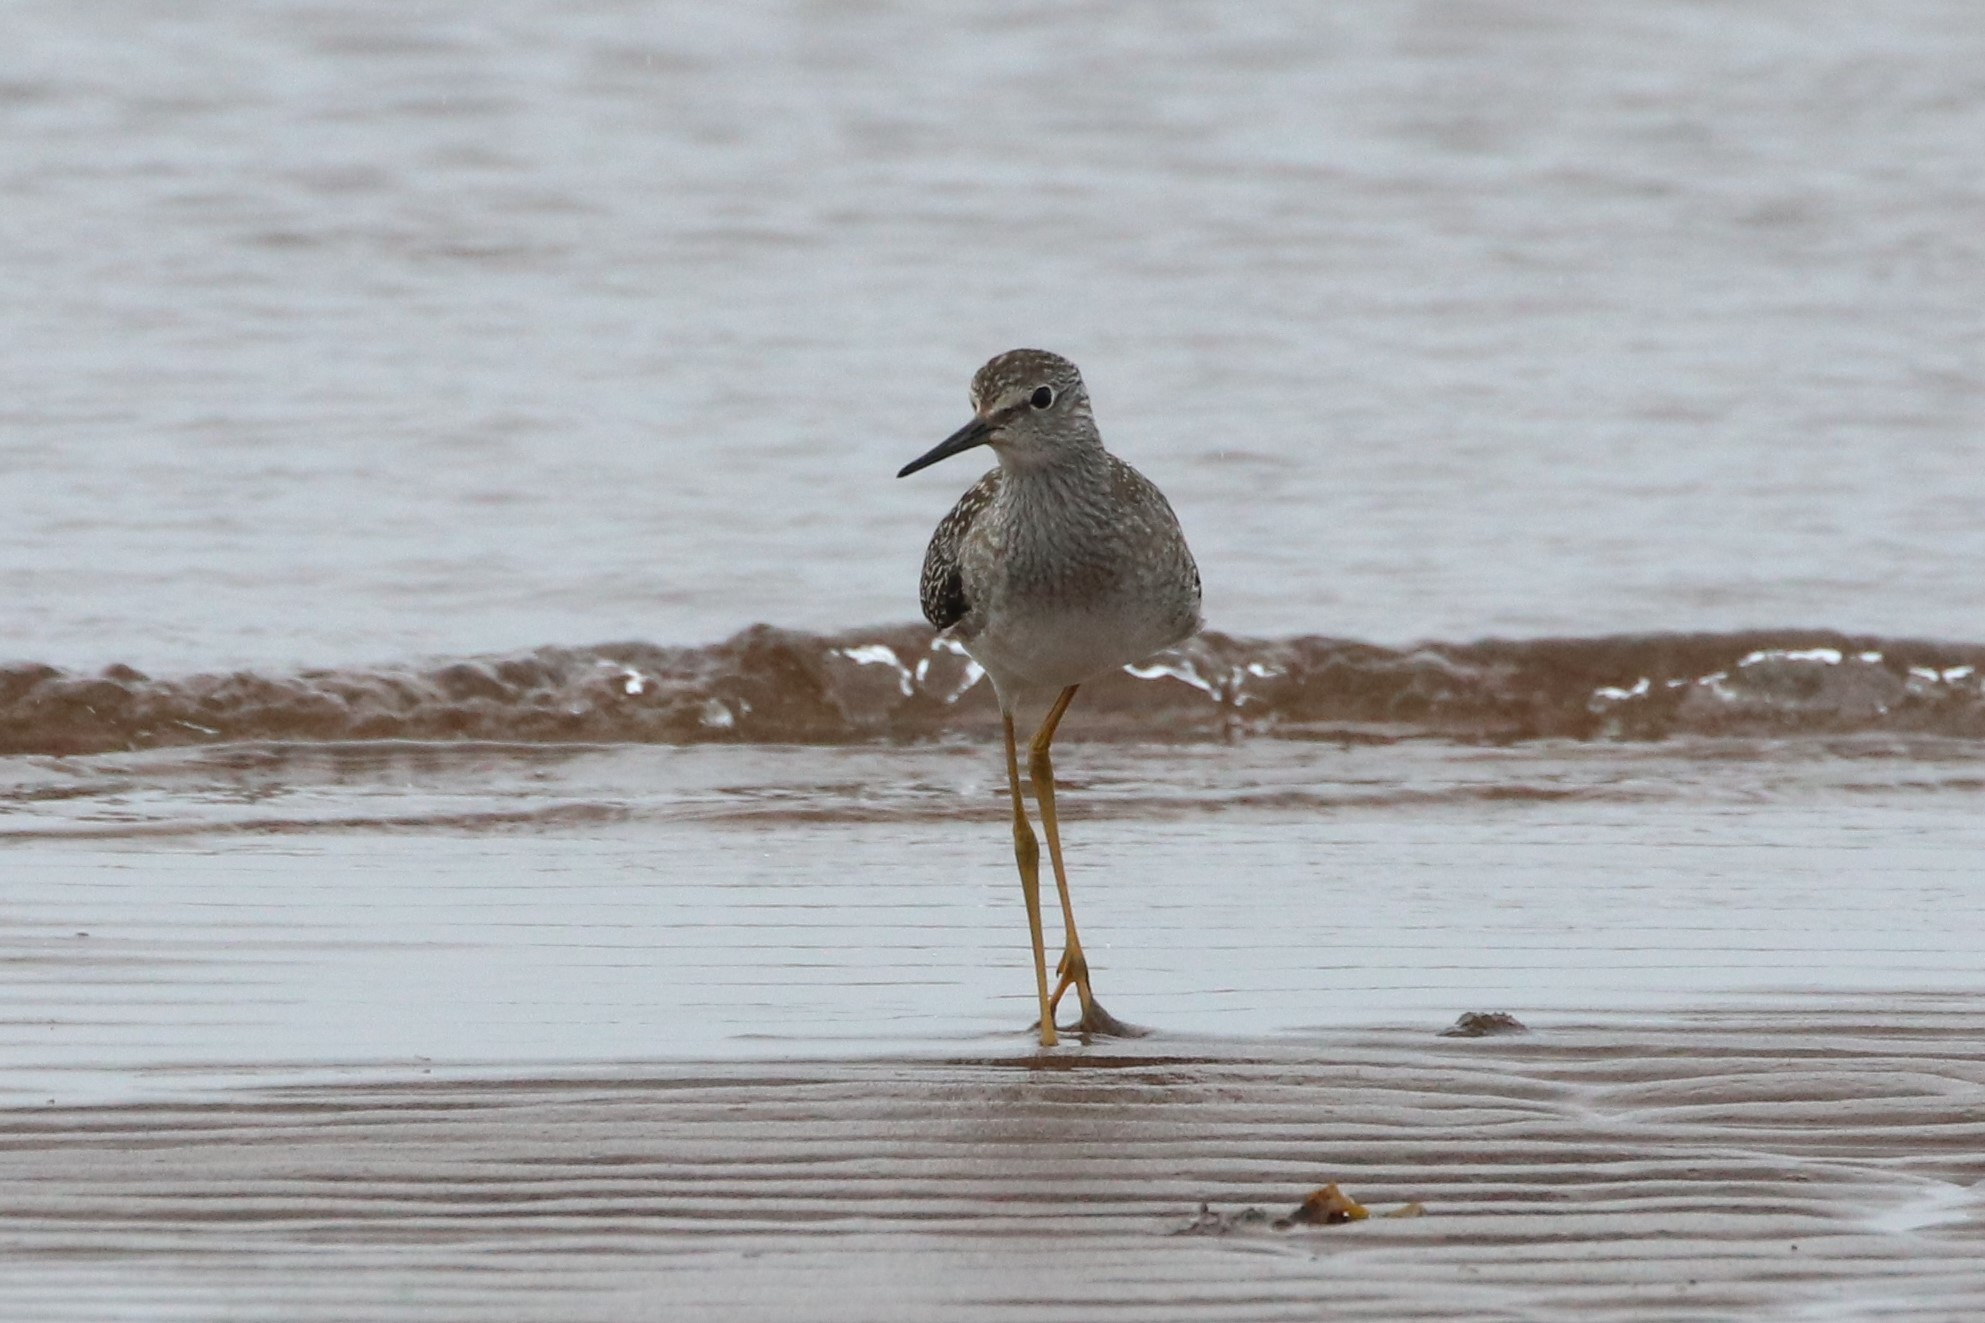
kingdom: Animalia
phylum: Chordata
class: Aves
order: Charadriiformes
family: Scolopacidae
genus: Tringa
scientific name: Tringa flavipes
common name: Lesser yellowlegs
